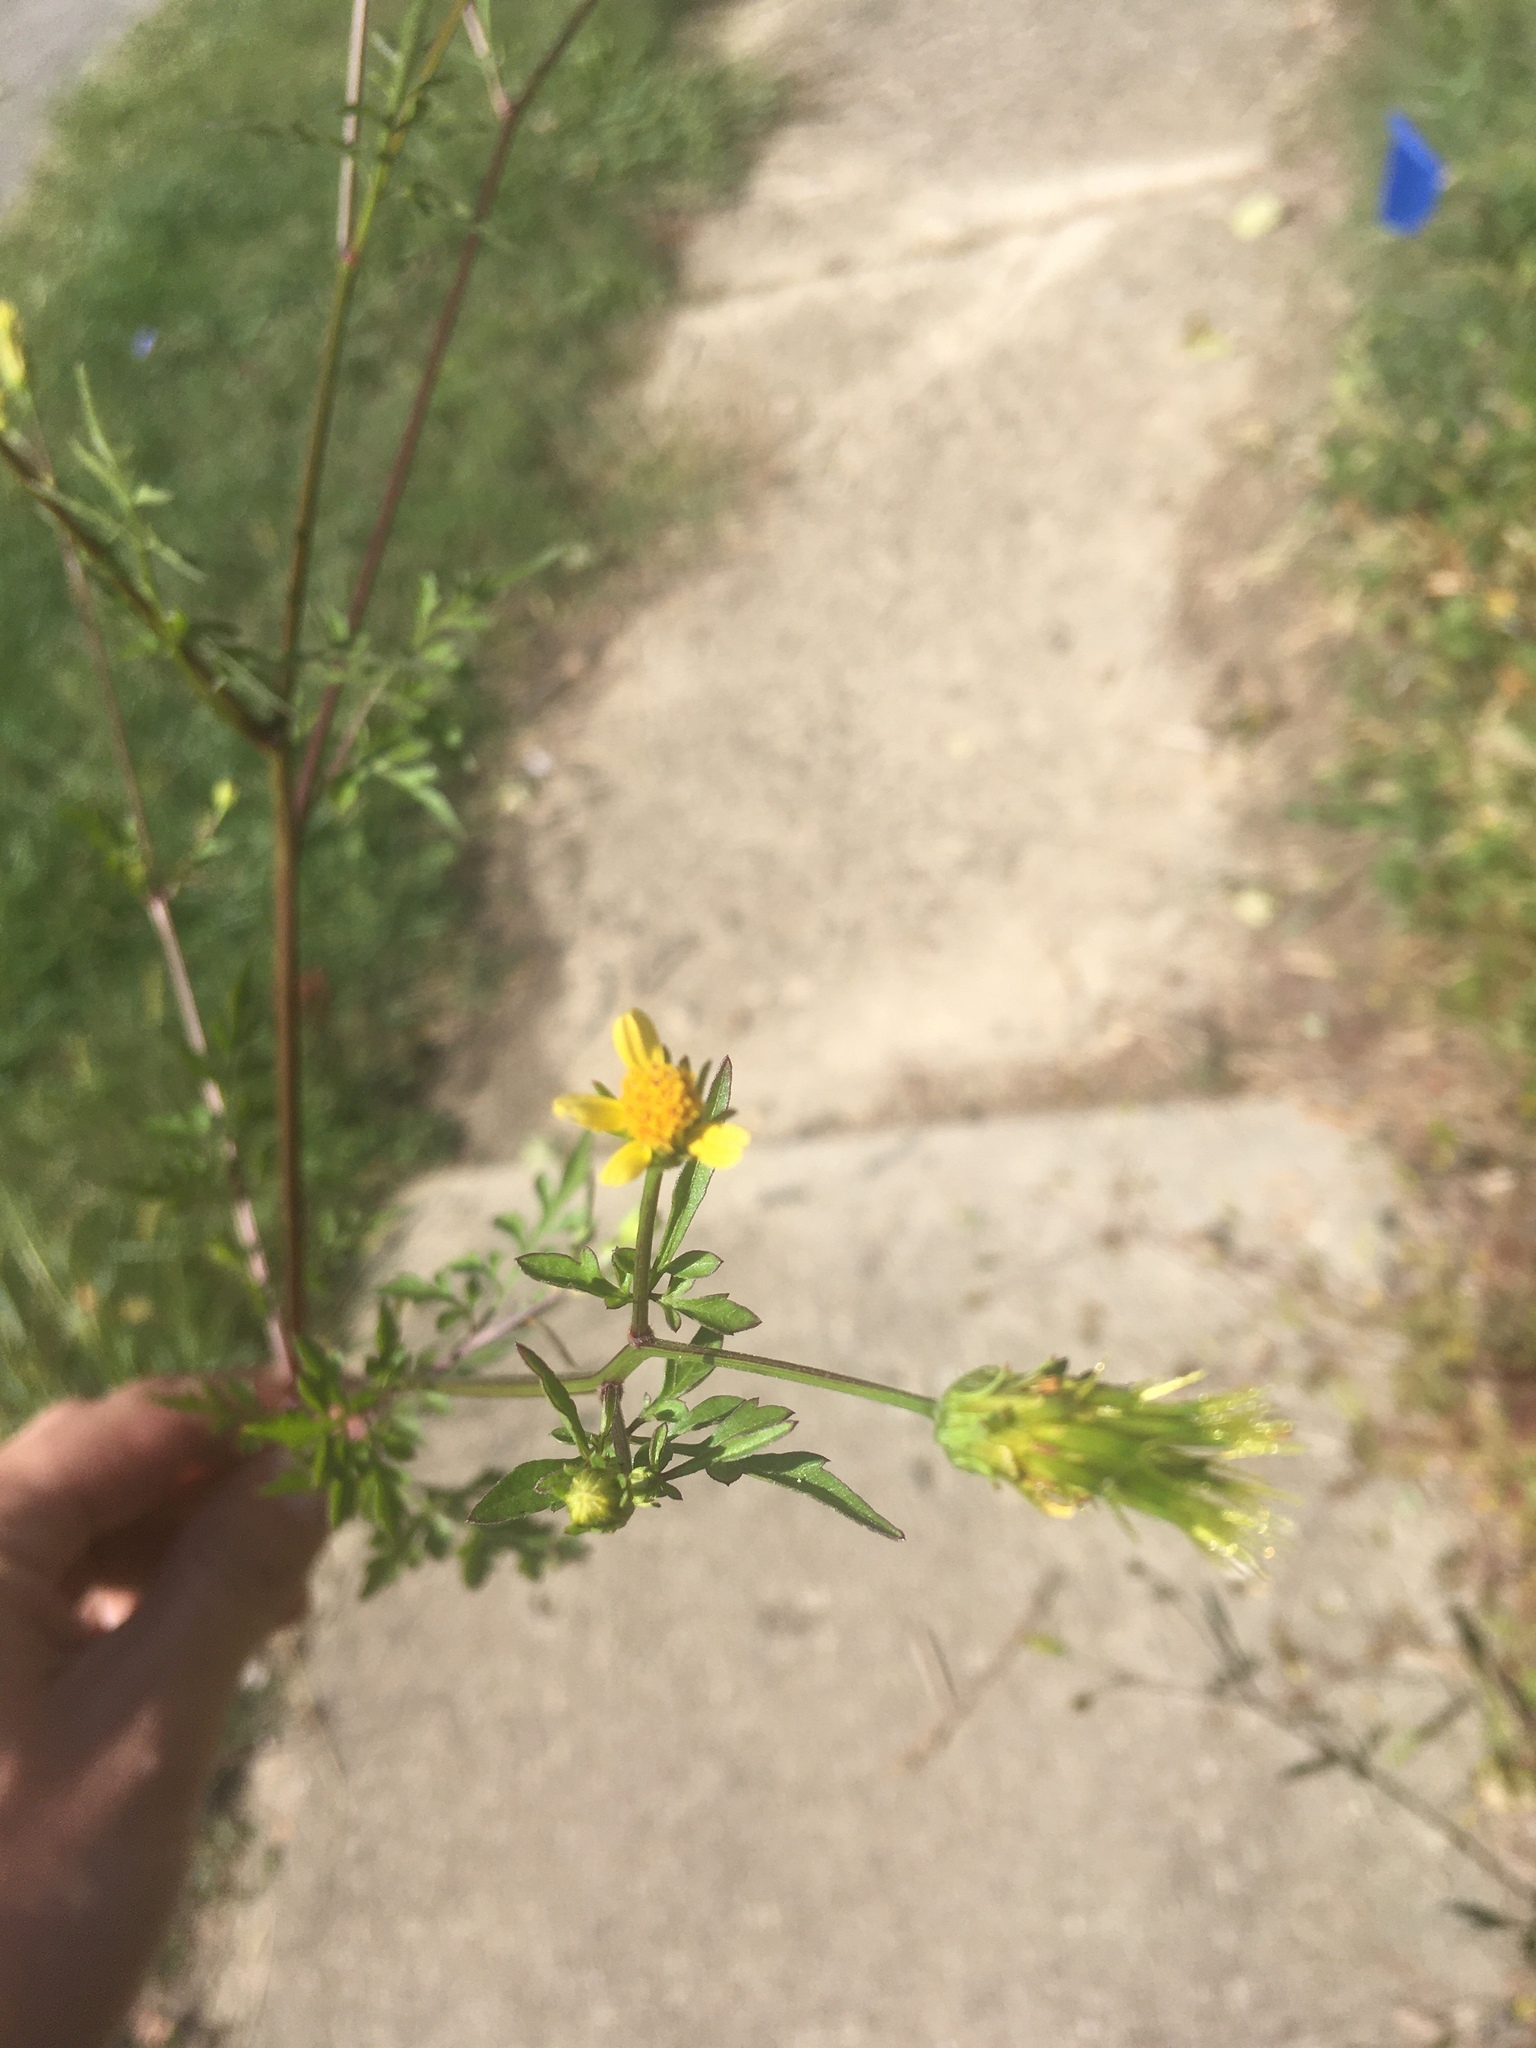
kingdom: Plantae
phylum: Tracheophyta
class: Magnoliopsida
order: Asterales
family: Asteraceae
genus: Bidens
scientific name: Bidens bipinnata
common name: Spanish-needles
